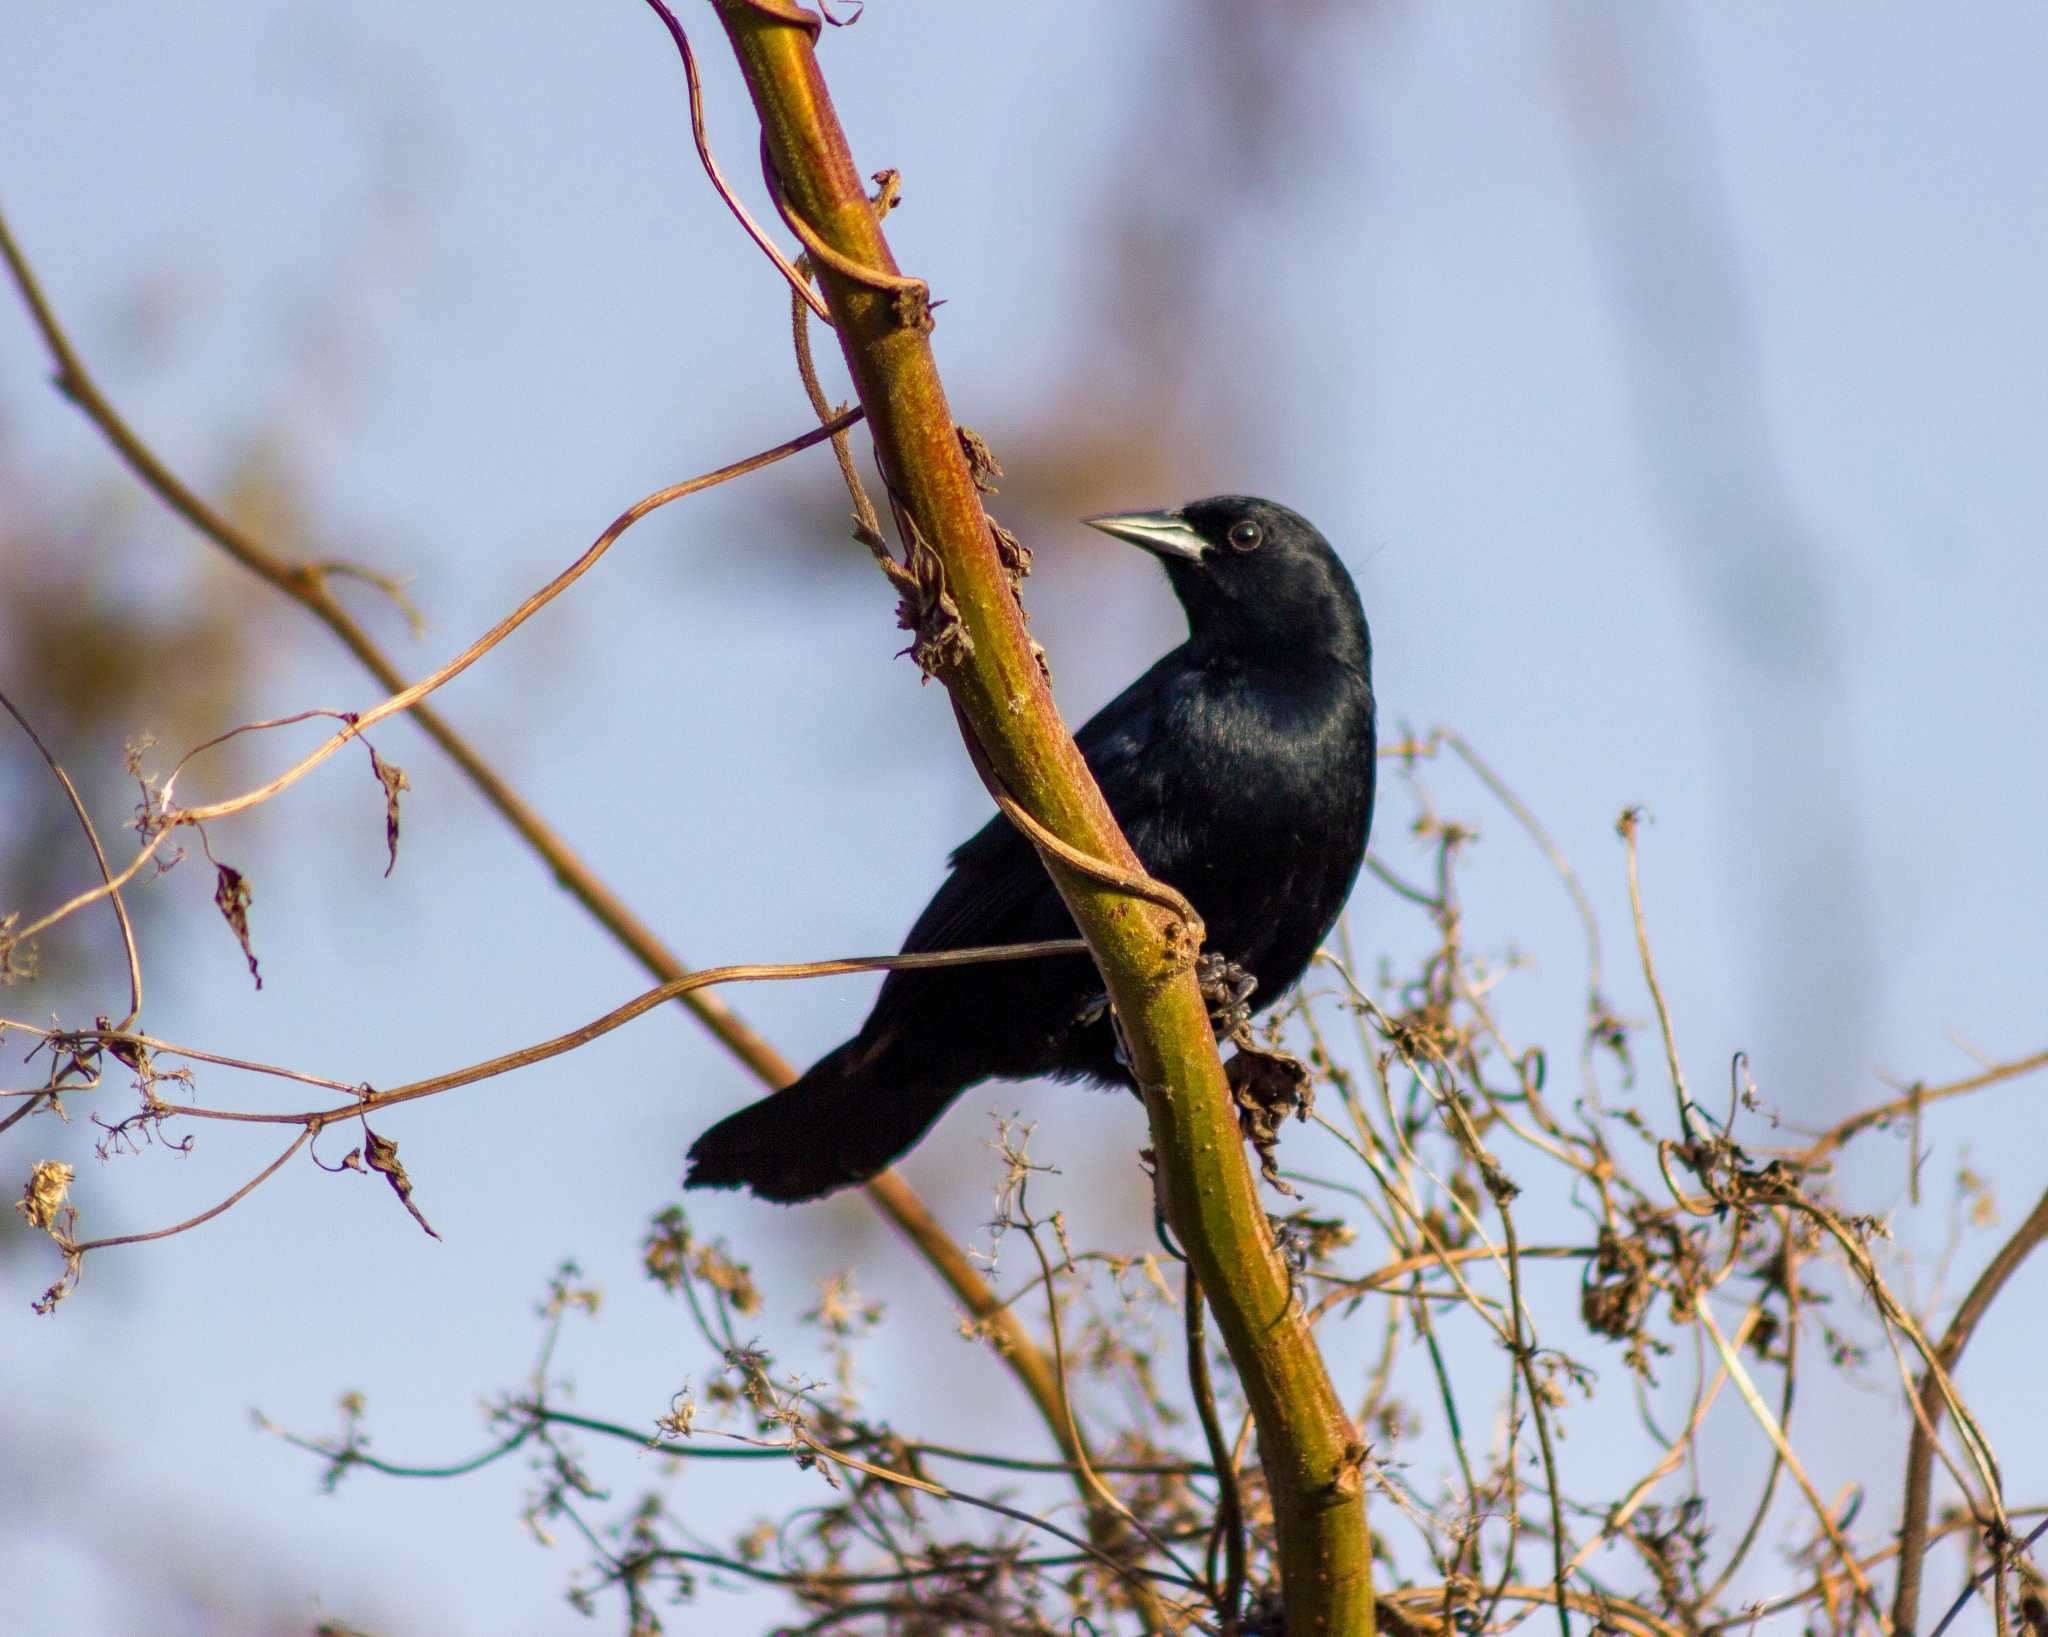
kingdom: Animalia
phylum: Chordata
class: Aves
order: Passeriformes
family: Icteridae
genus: Agelasticus
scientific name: Agelasticus cyanopus
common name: Unicolored blackbird
